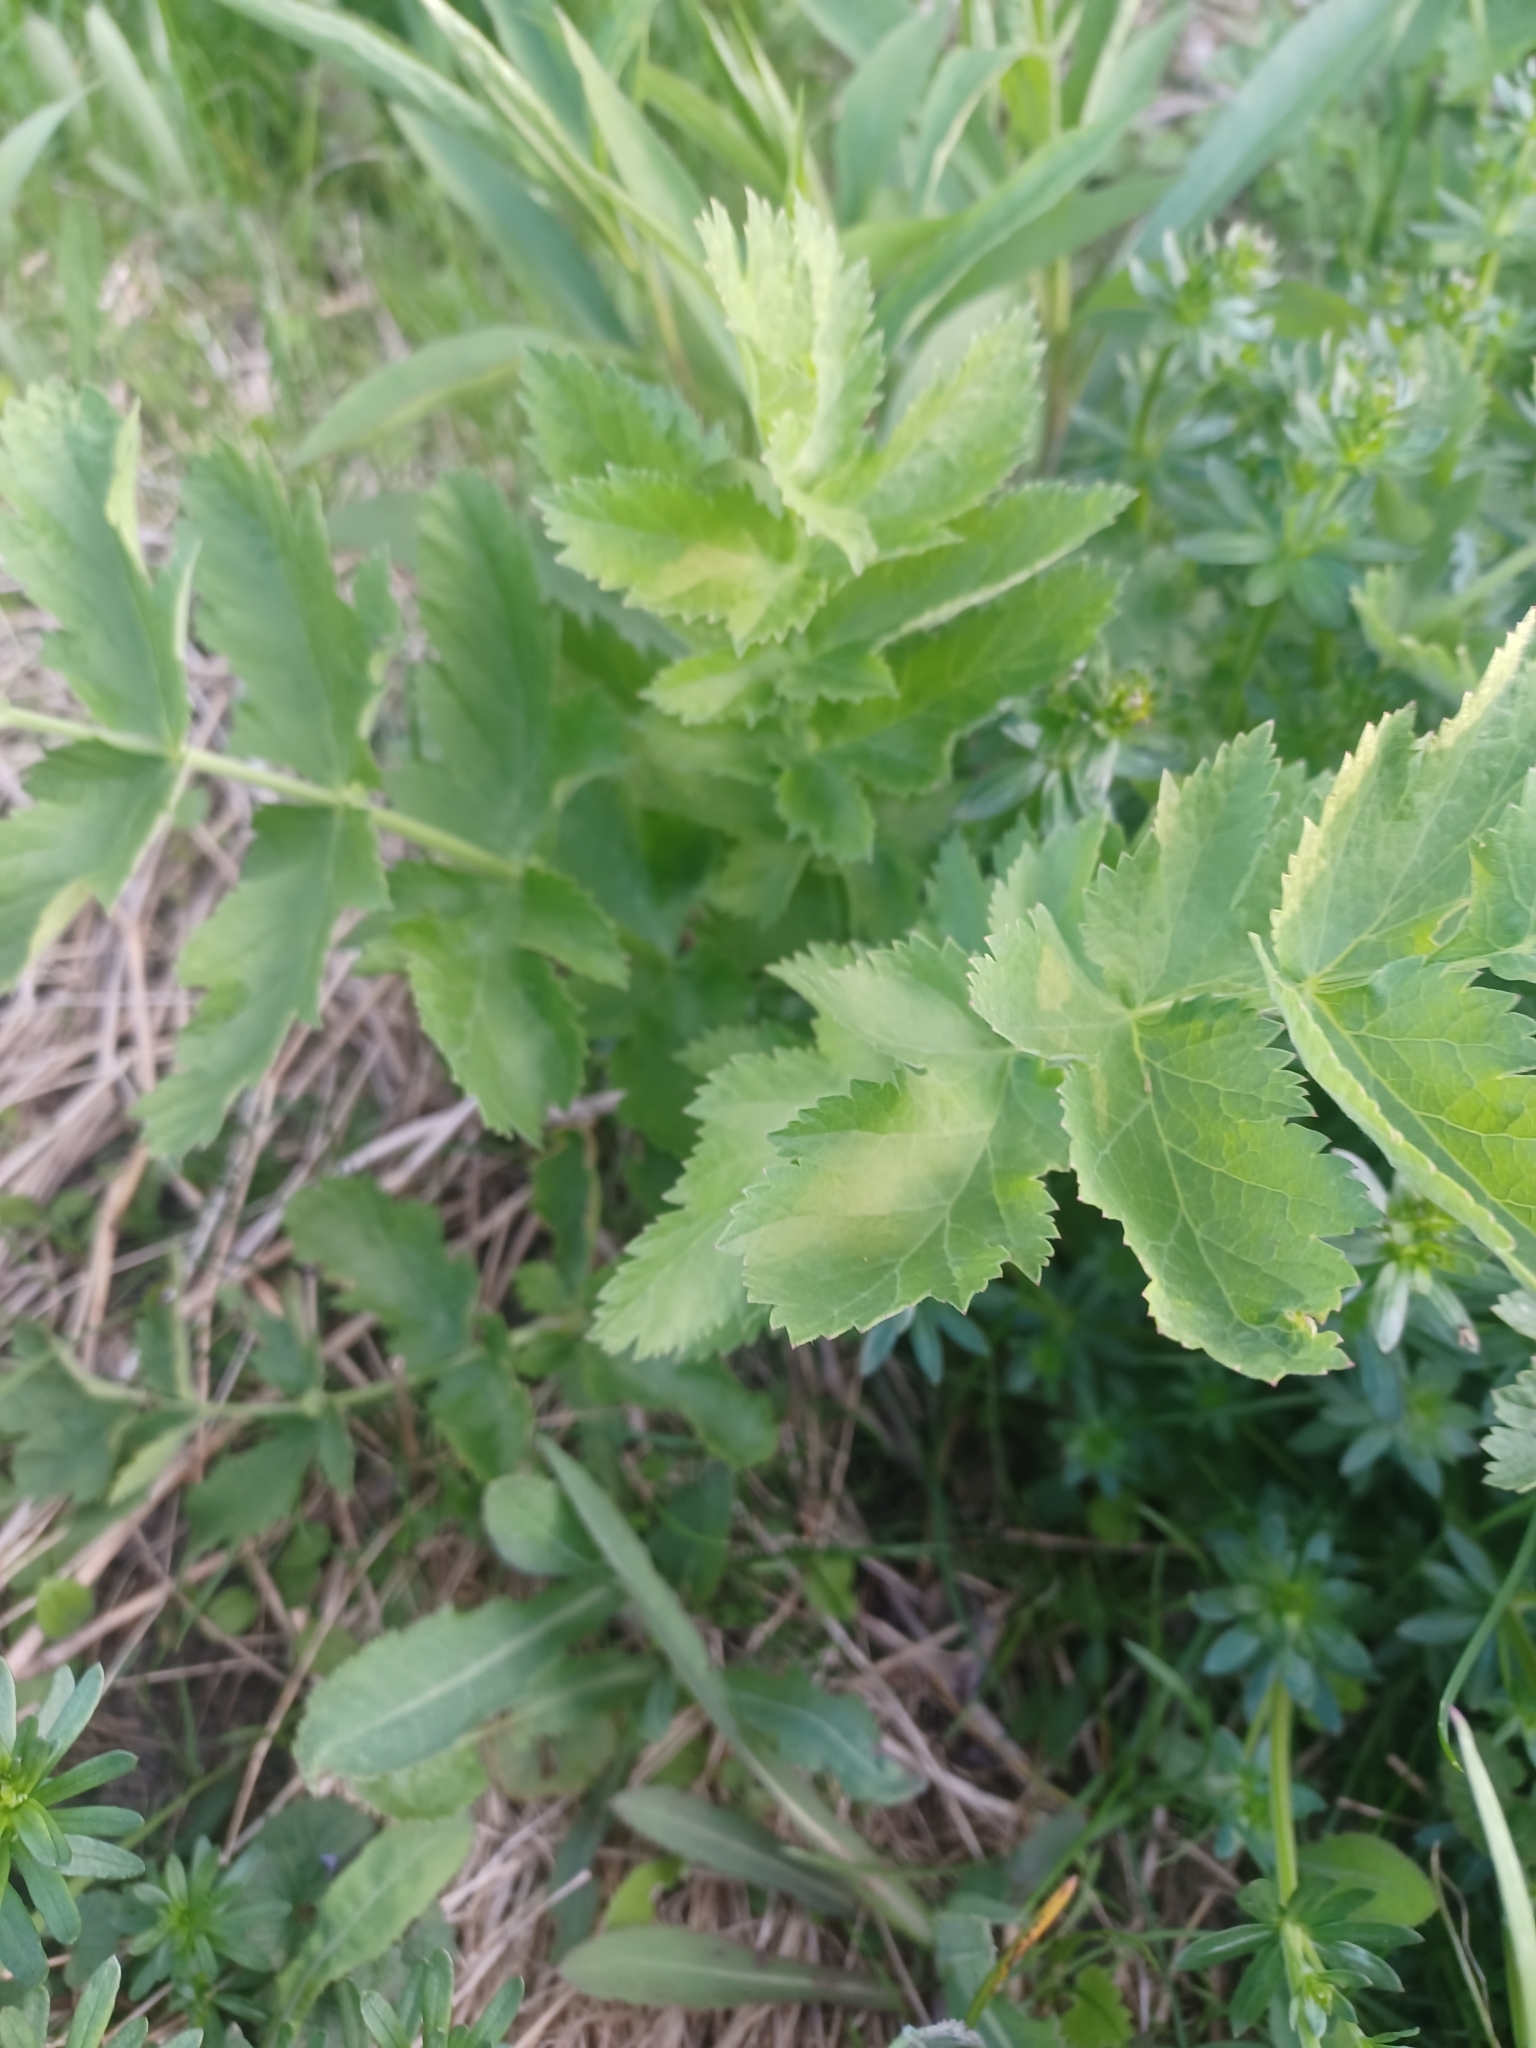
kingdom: Plantae
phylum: Tracheophyta
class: Magnoliopsida
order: Apiales
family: Apiaceae
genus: Pastinaca
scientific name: Pastinaca sativa
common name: Wild parsnip
